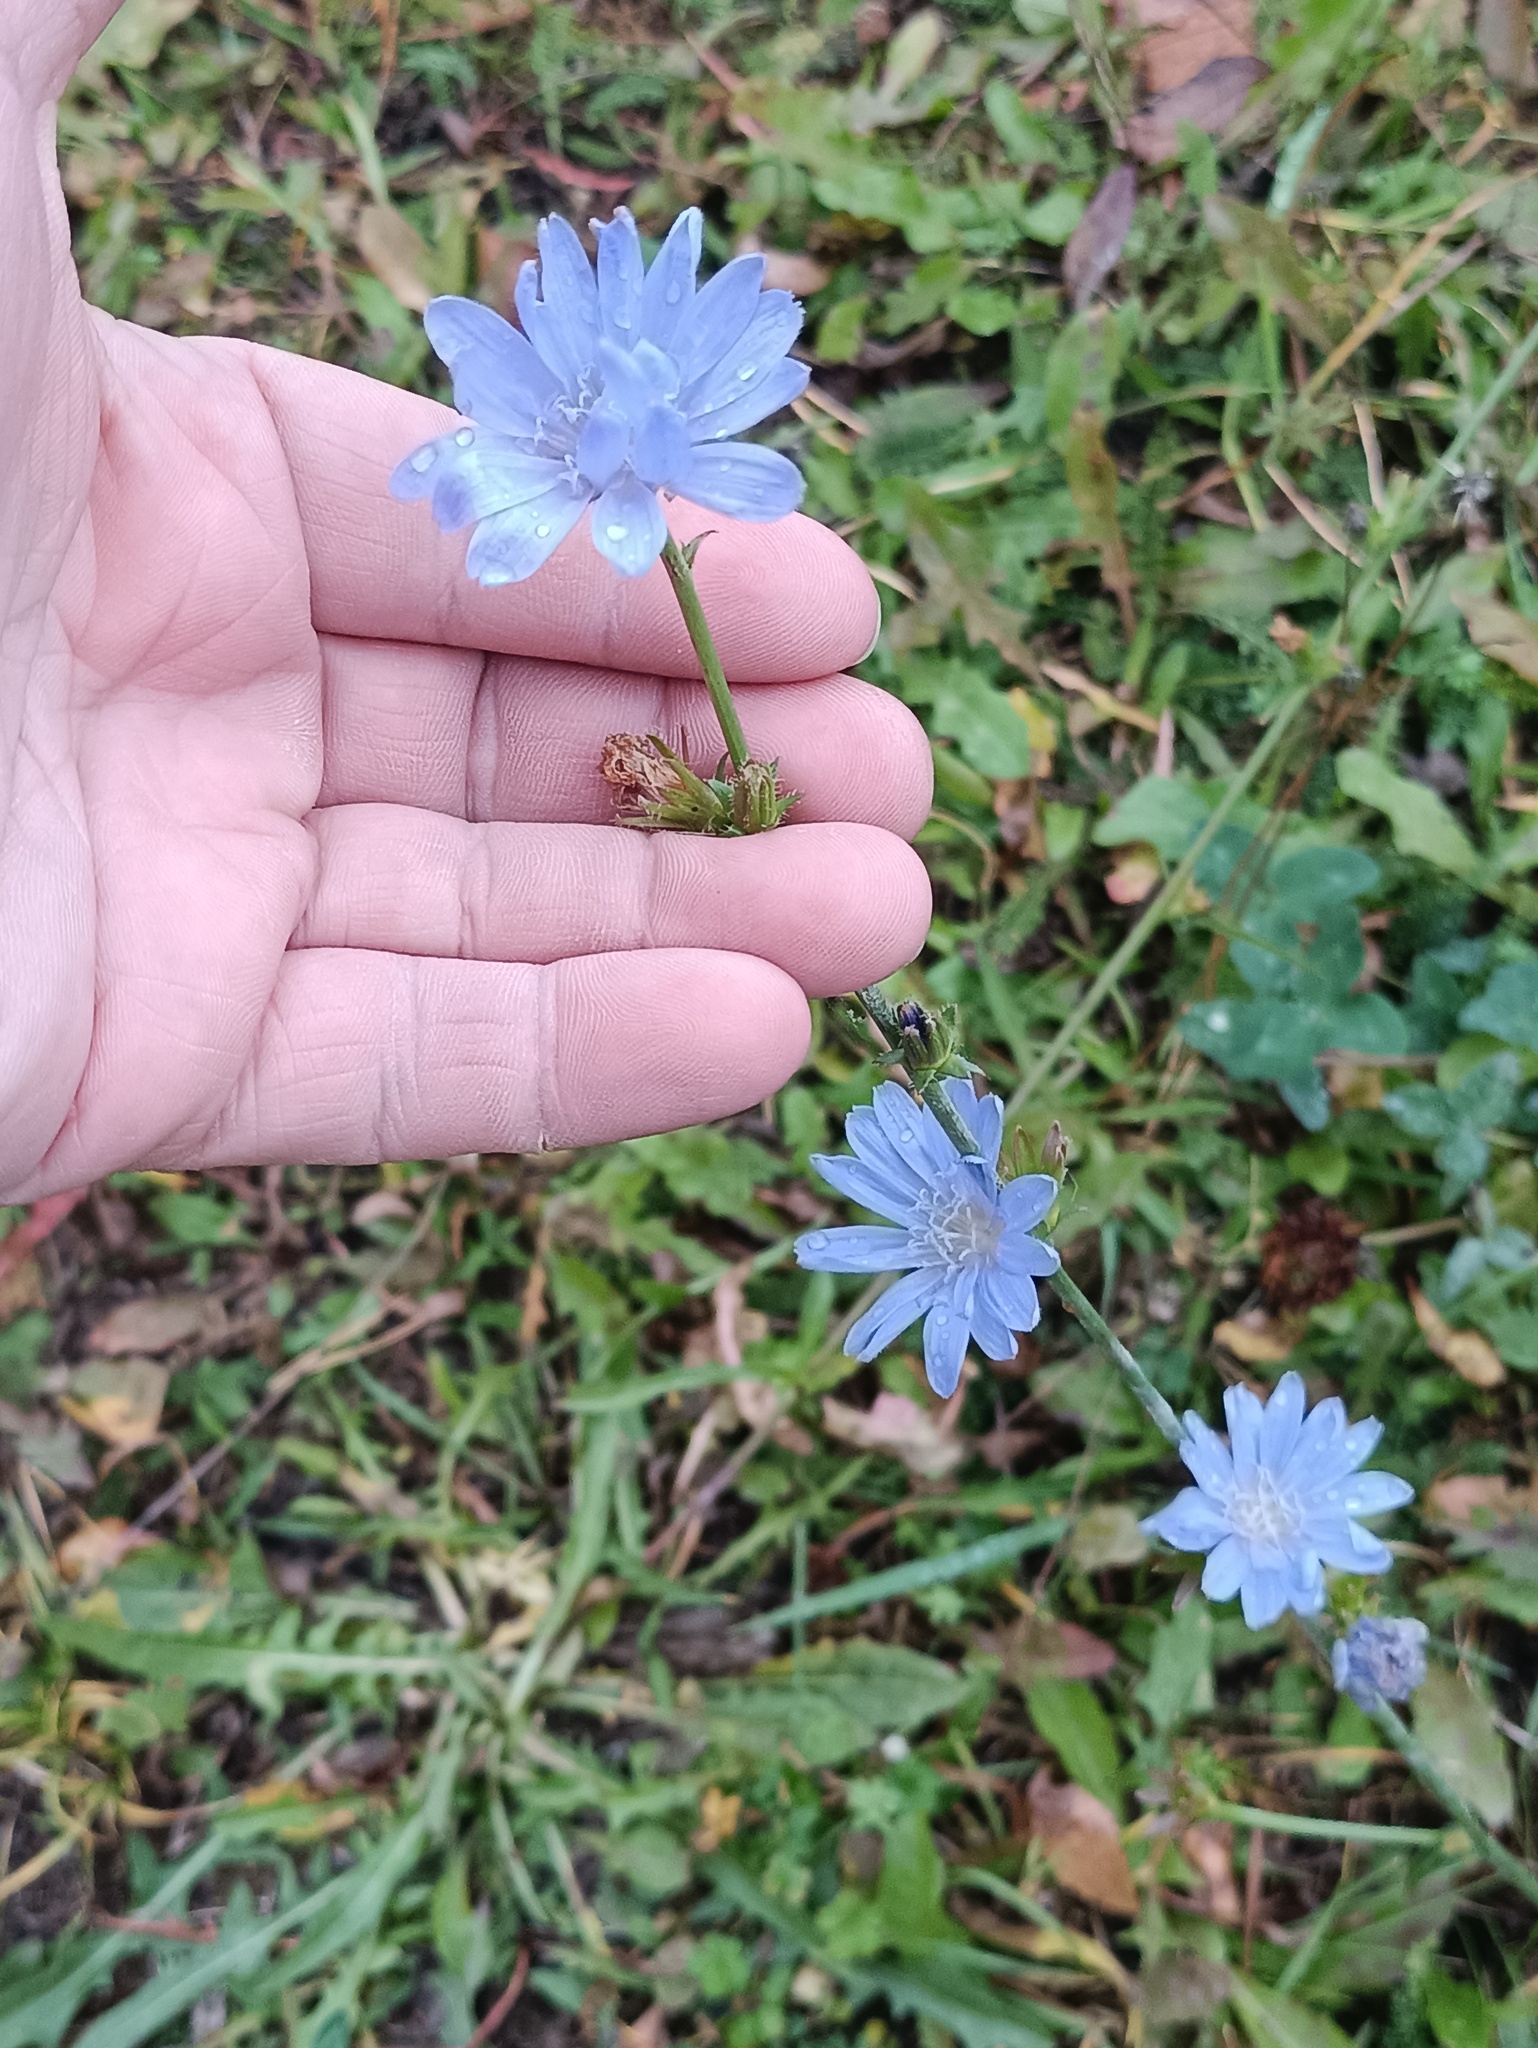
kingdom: Plantae
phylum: Tracheophyta
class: Magnoliopsida
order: Asterales
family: Asteraceae
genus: Cichorium
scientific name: Cichorium intybus
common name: Chicory
